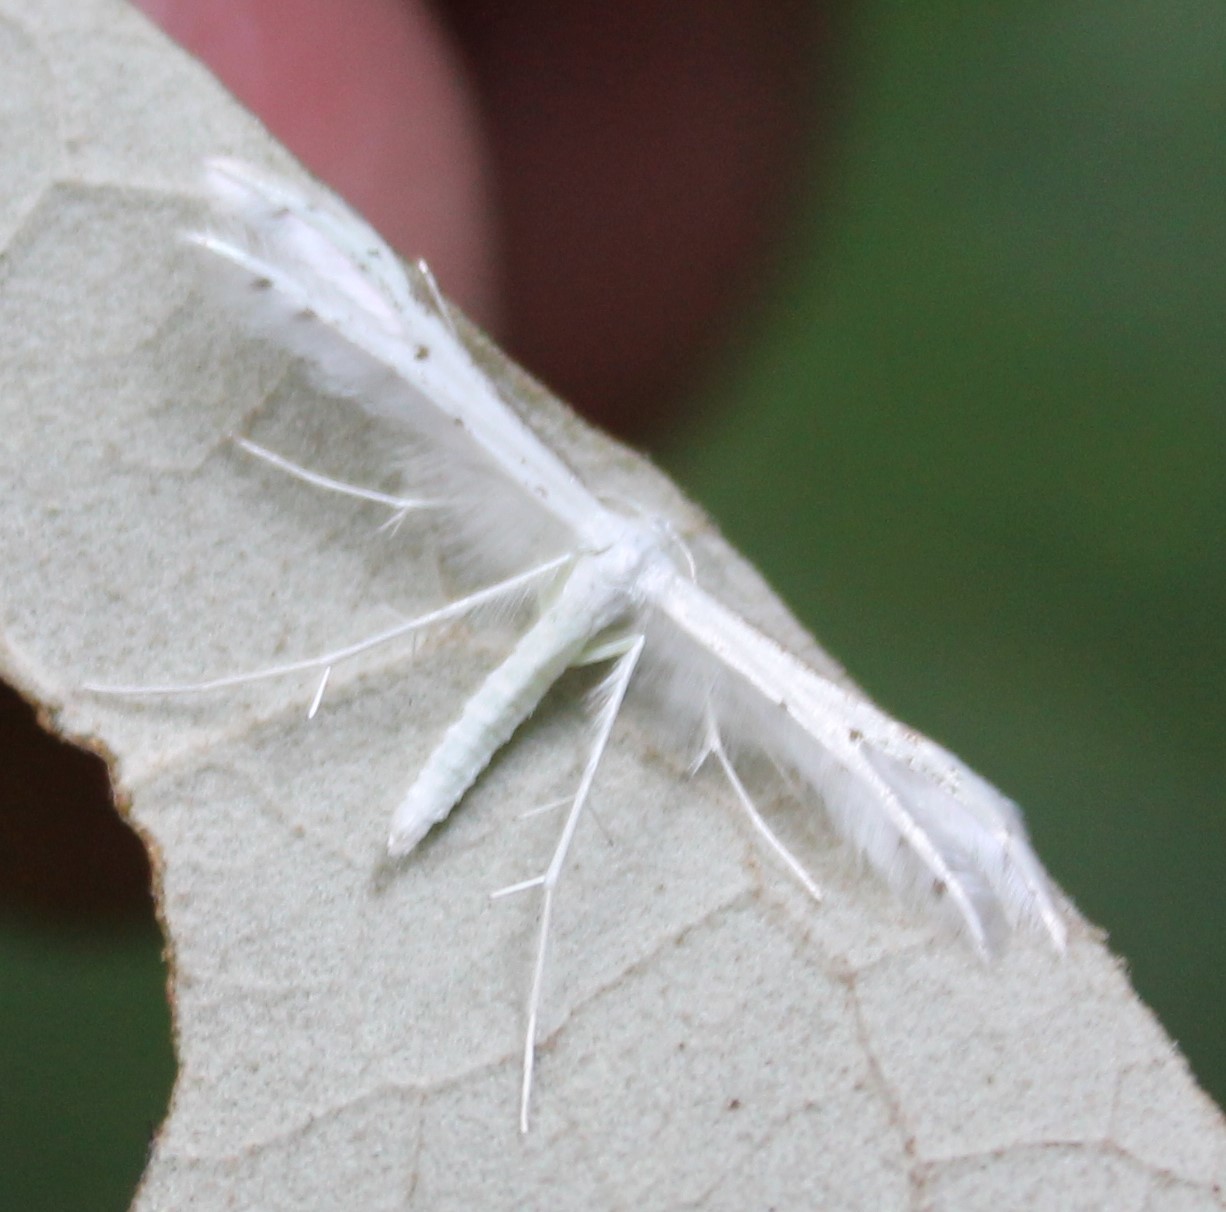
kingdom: Animalia
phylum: Arthropoda
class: Insecta
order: Lepidoptera
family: Pterophoridae
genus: Pterophorus
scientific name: Pterophorus monospilalis
